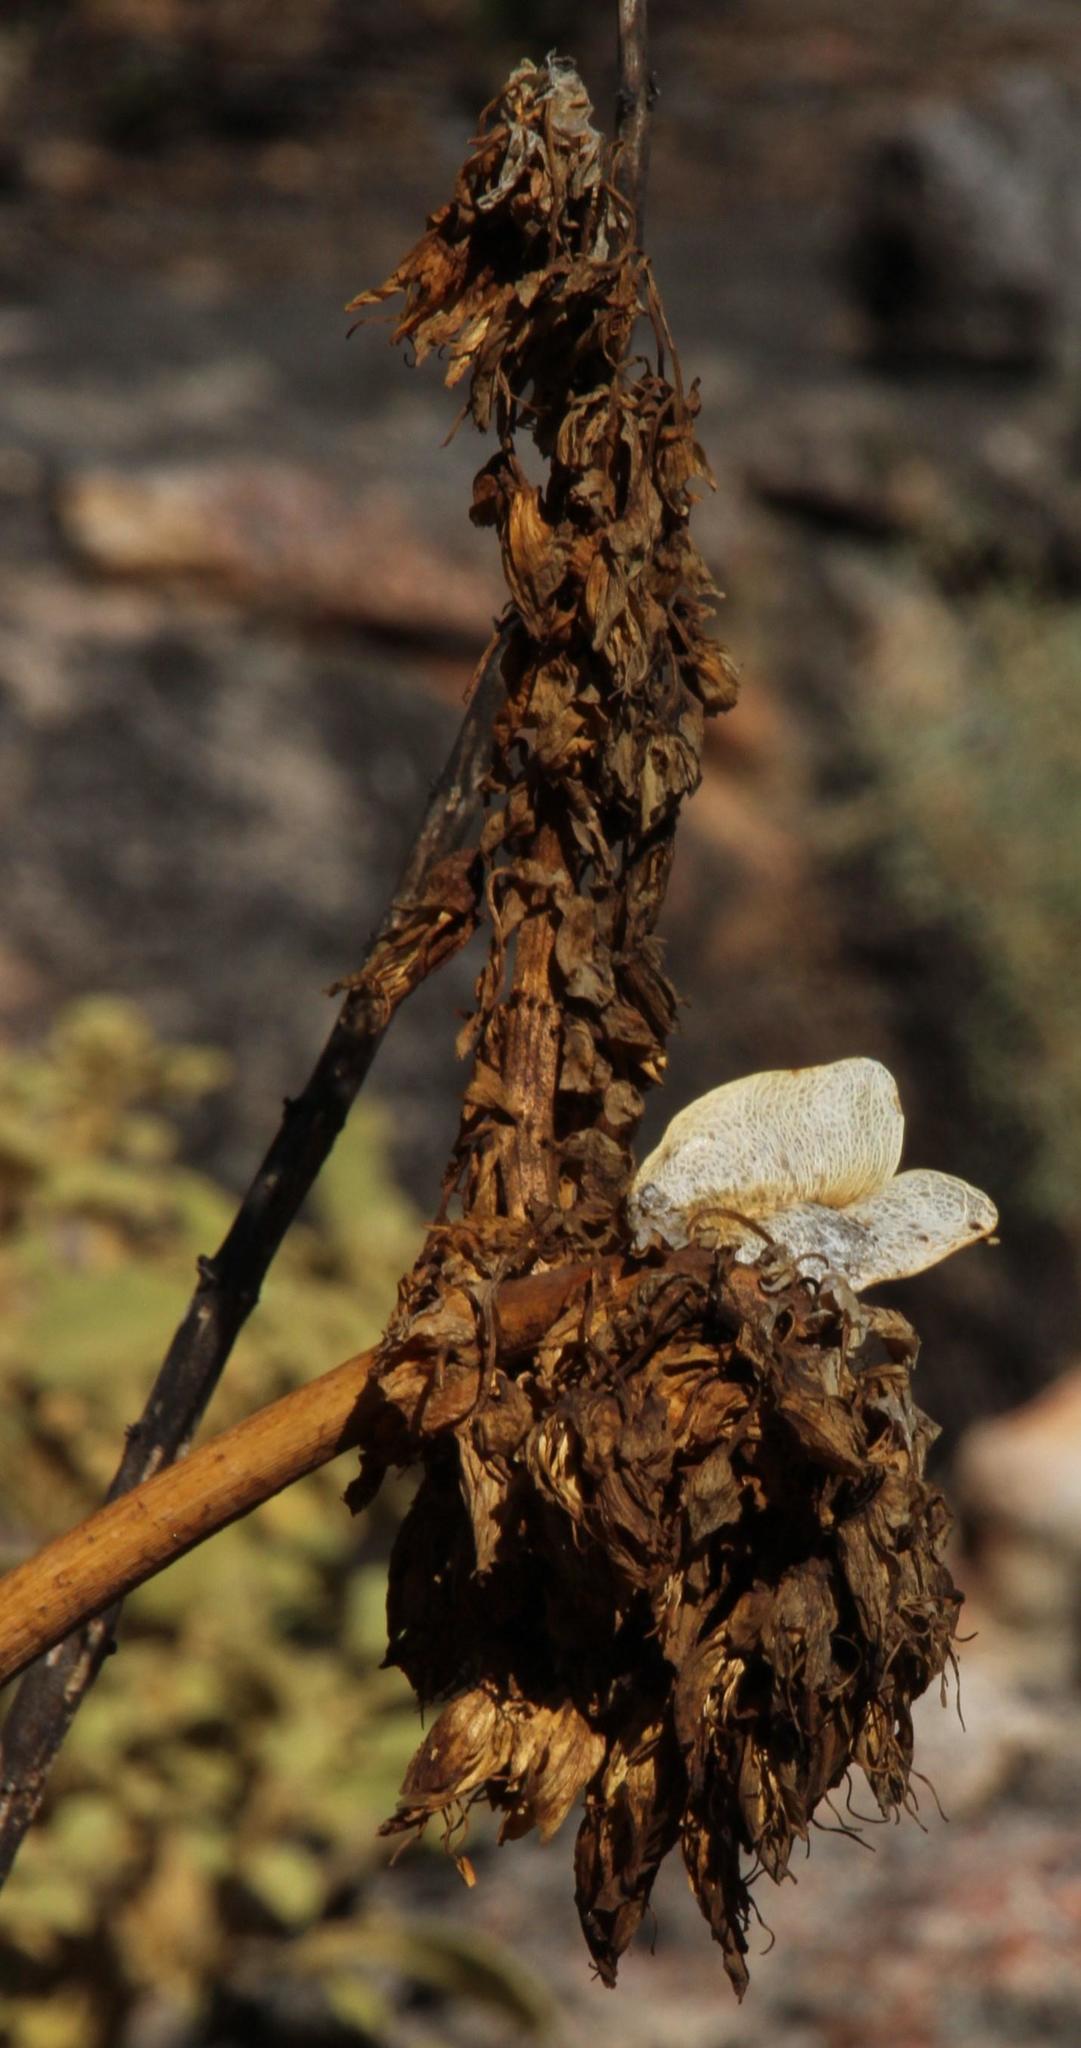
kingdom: Plantae
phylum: Tracheophyta
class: Magnoliopsida
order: Geraniales
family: Melianthaceae
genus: Melianthus
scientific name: Melianthus major
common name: Honey-flower
